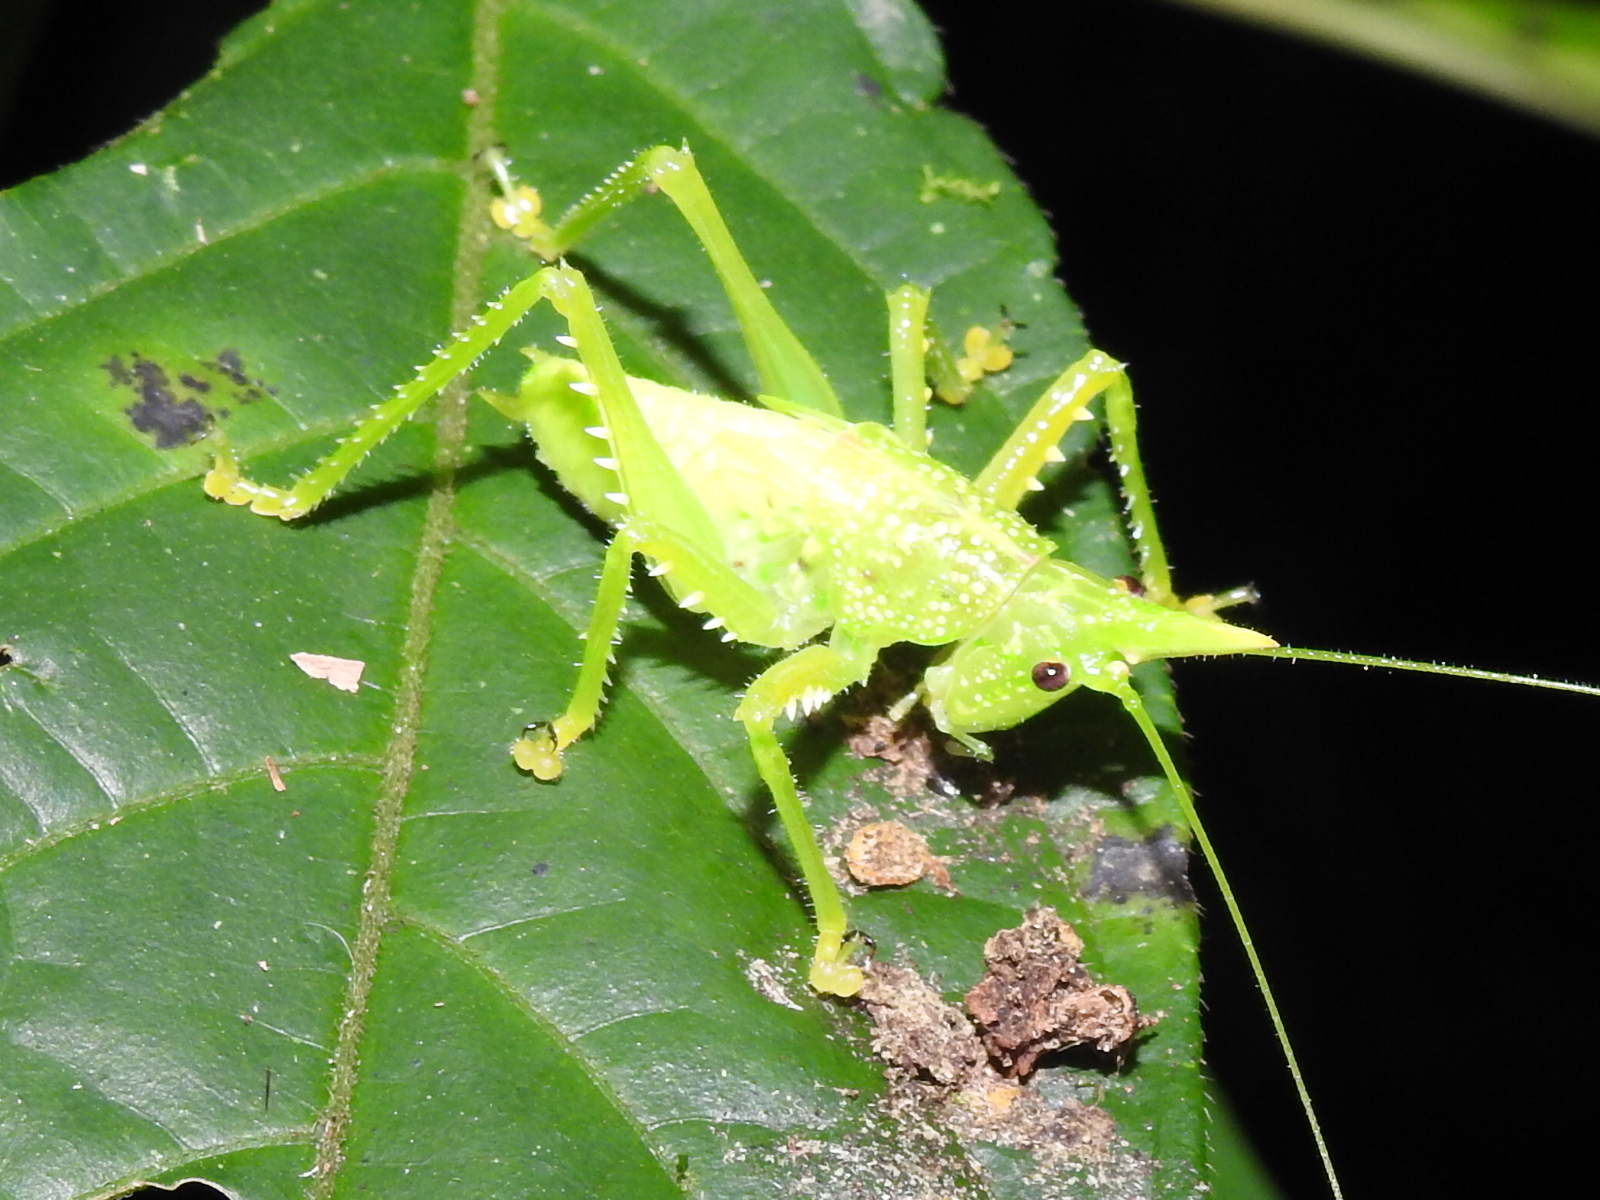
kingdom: Animalia
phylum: Arthropoda
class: Insecta
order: Orthoptera
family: Tettigoniidae
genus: Copiphora
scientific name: Copiphora rhinoceros
